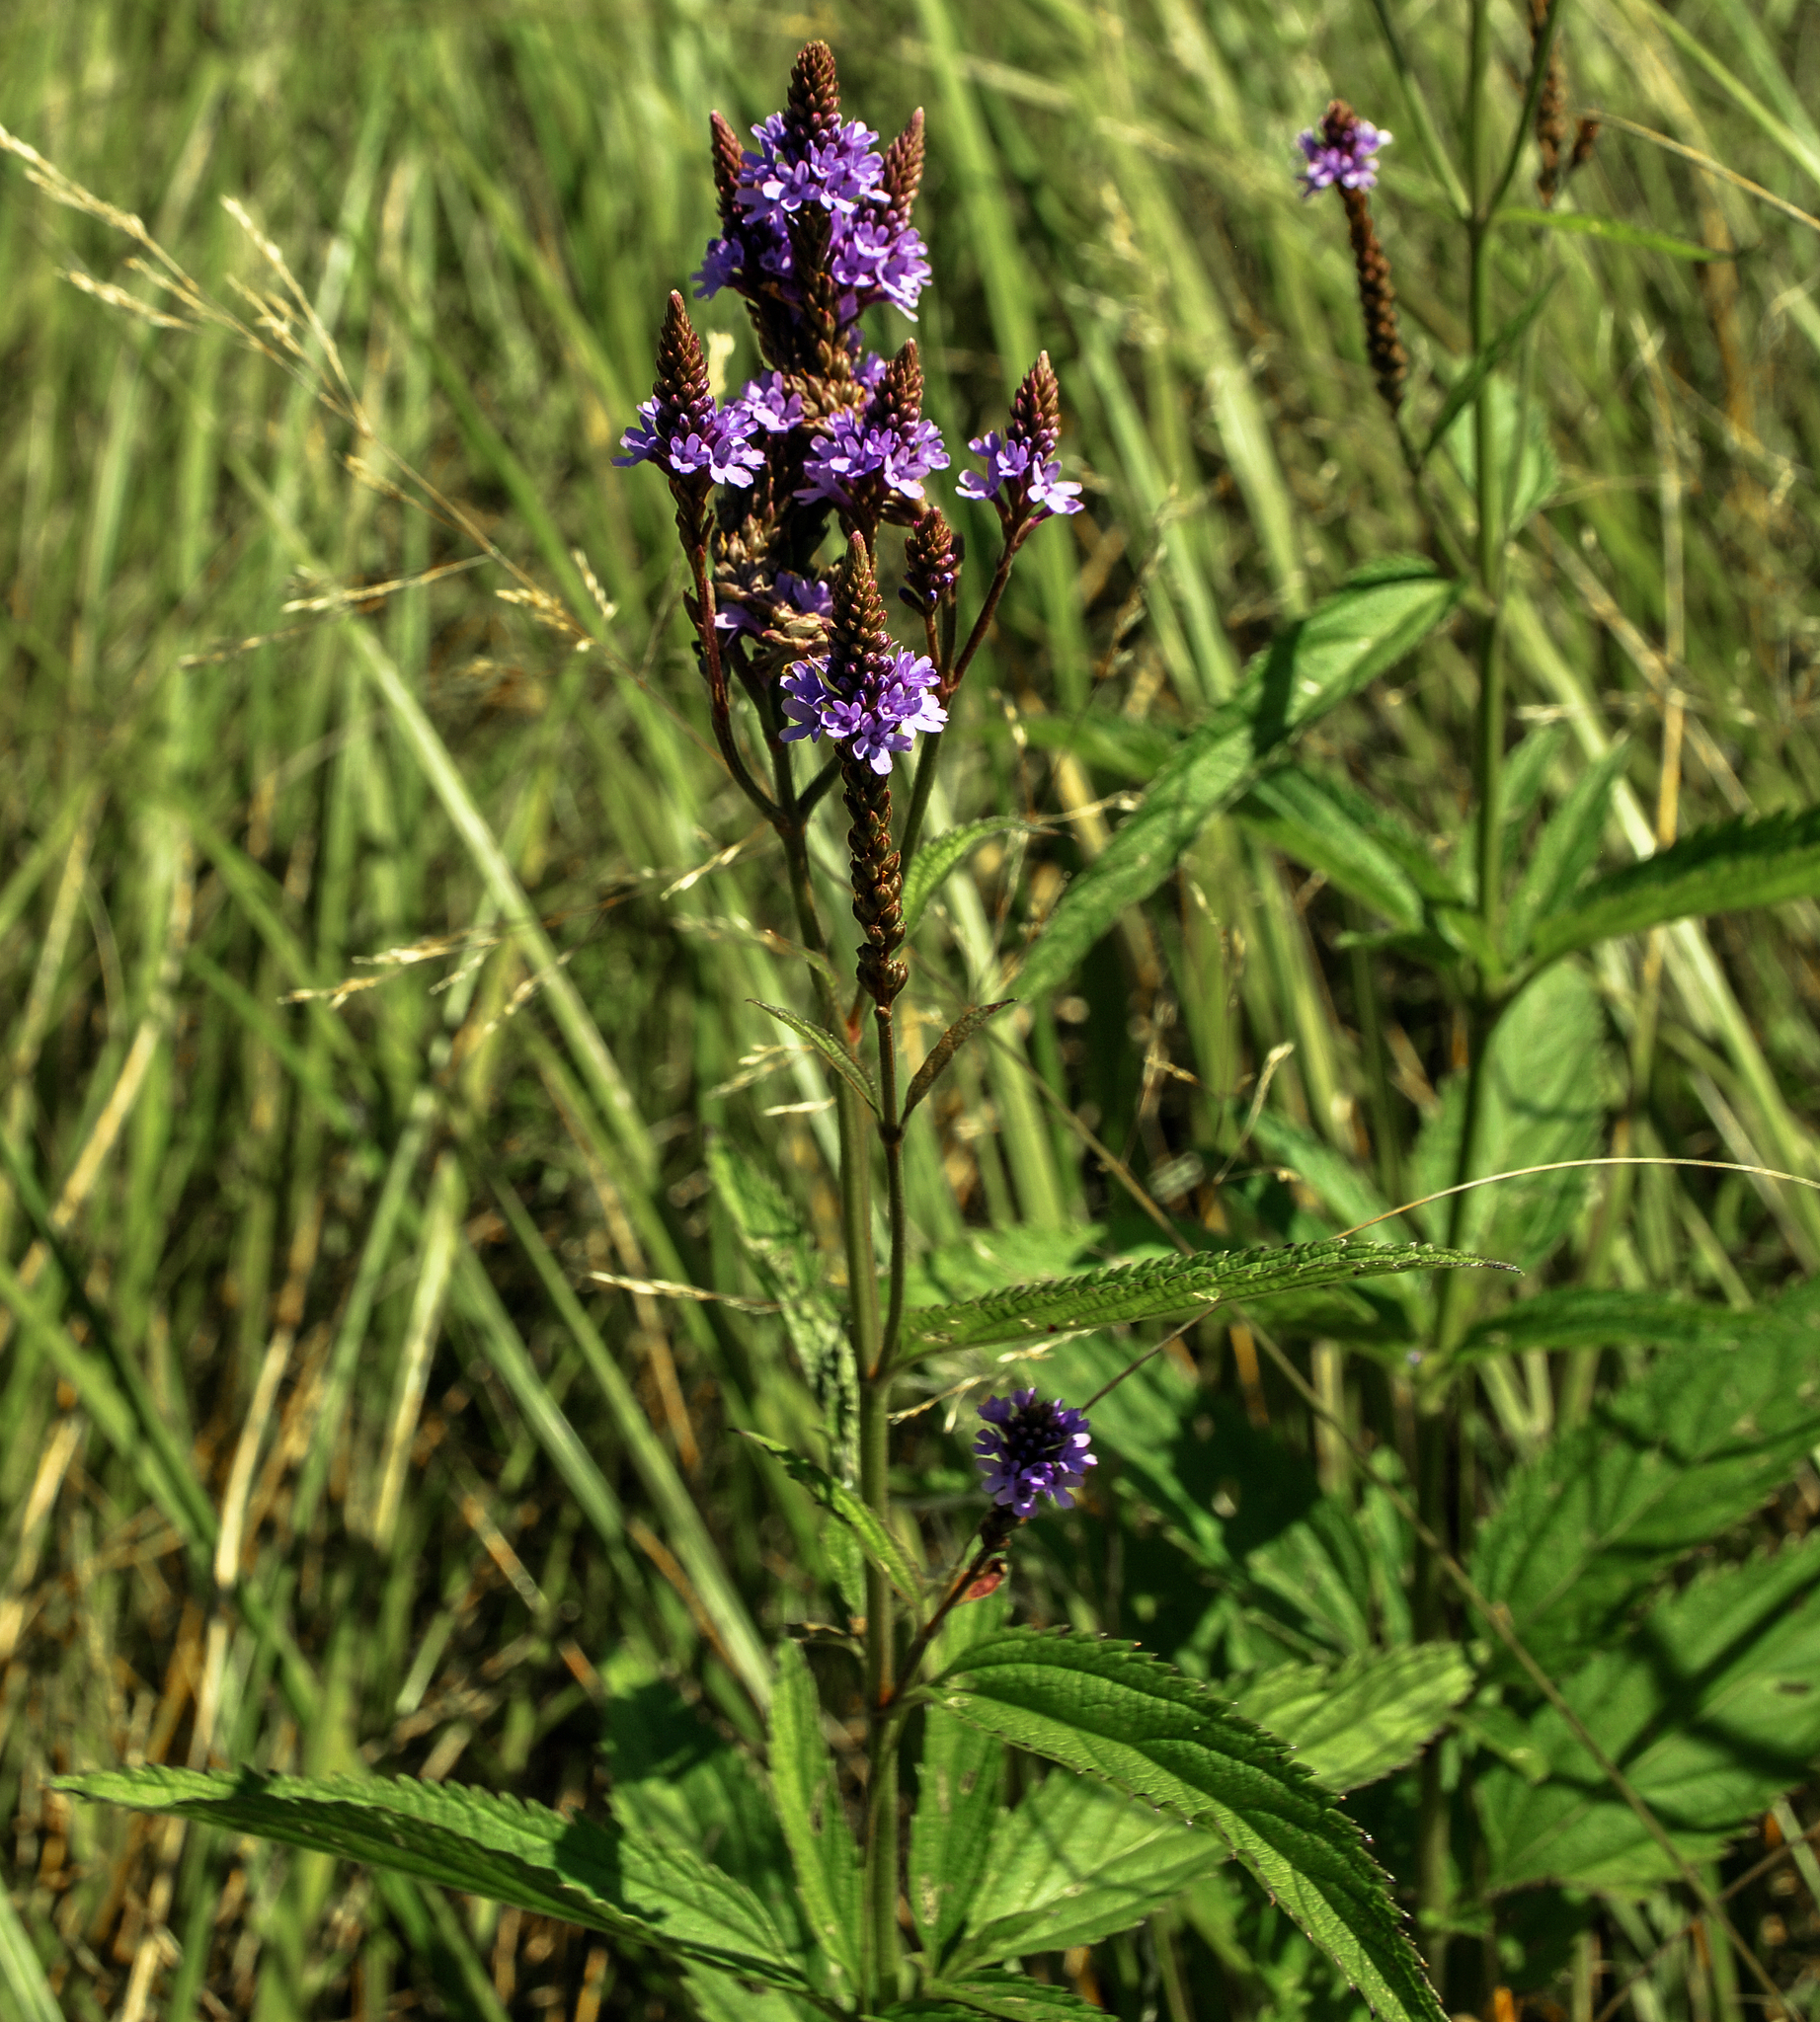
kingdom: Plantae
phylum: Tracheophyta
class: Magnoliopsida
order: Lamiales
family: Verbenaceae
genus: Verbena
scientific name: Verbena hastata
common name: American blue vervain
